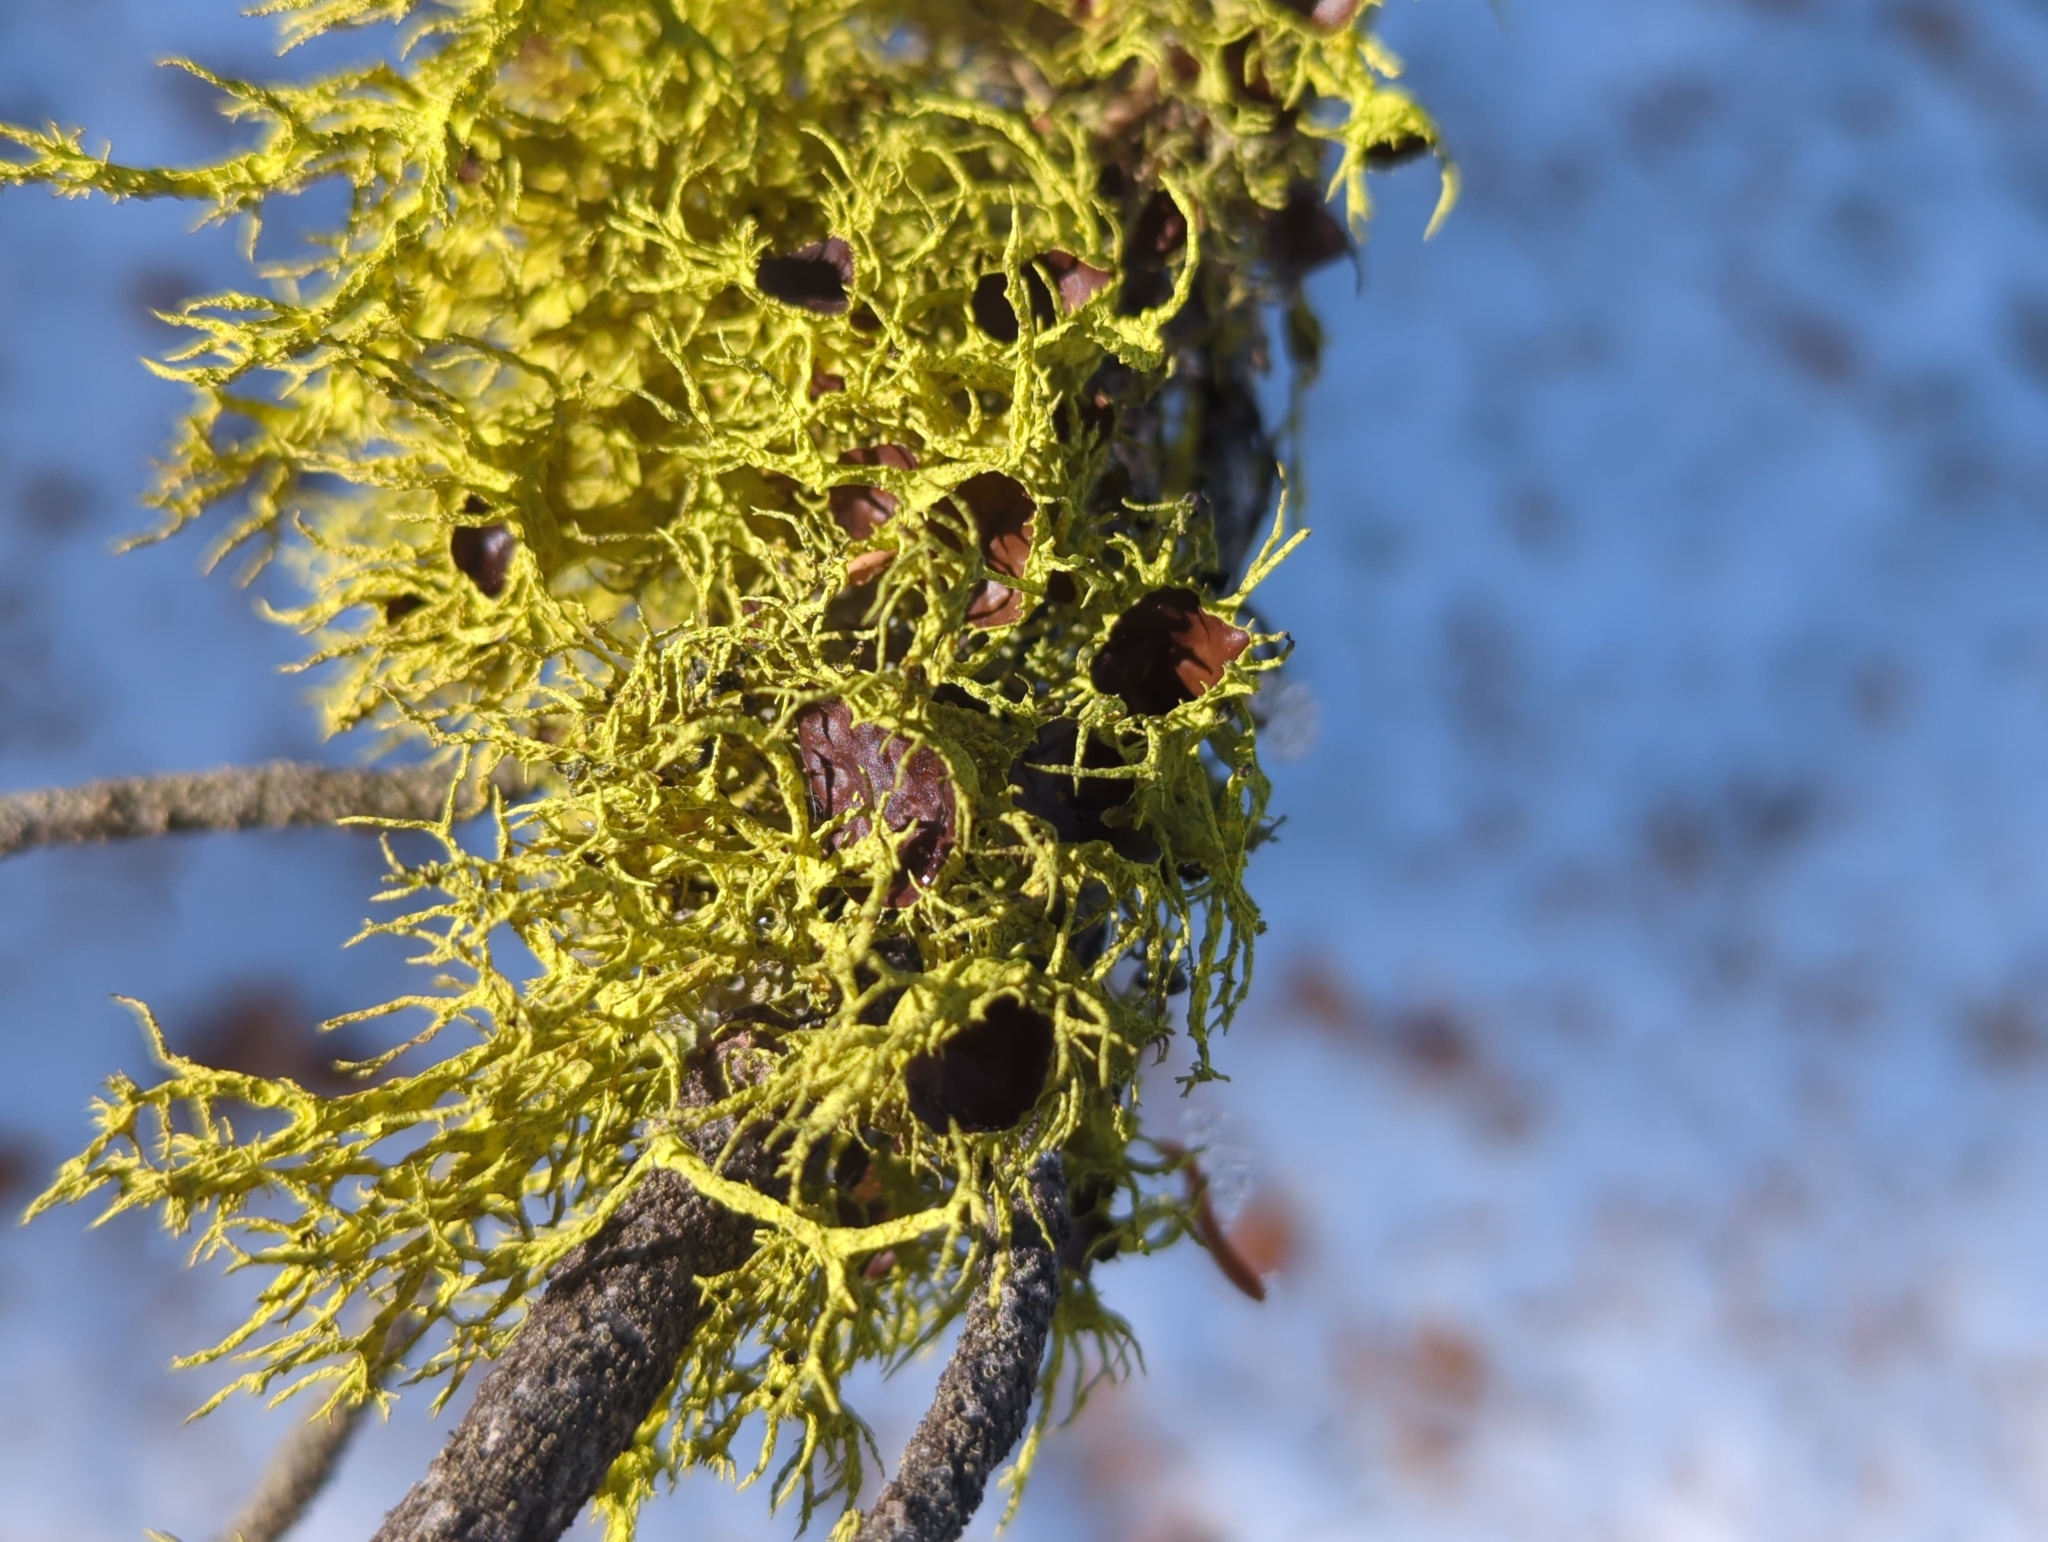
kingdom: Fungi
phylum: Ascomycota
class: Lecanoromycetes
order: Lecanorales
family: Parmeliaceae
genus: Letharia
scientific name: Letharia columbiana
